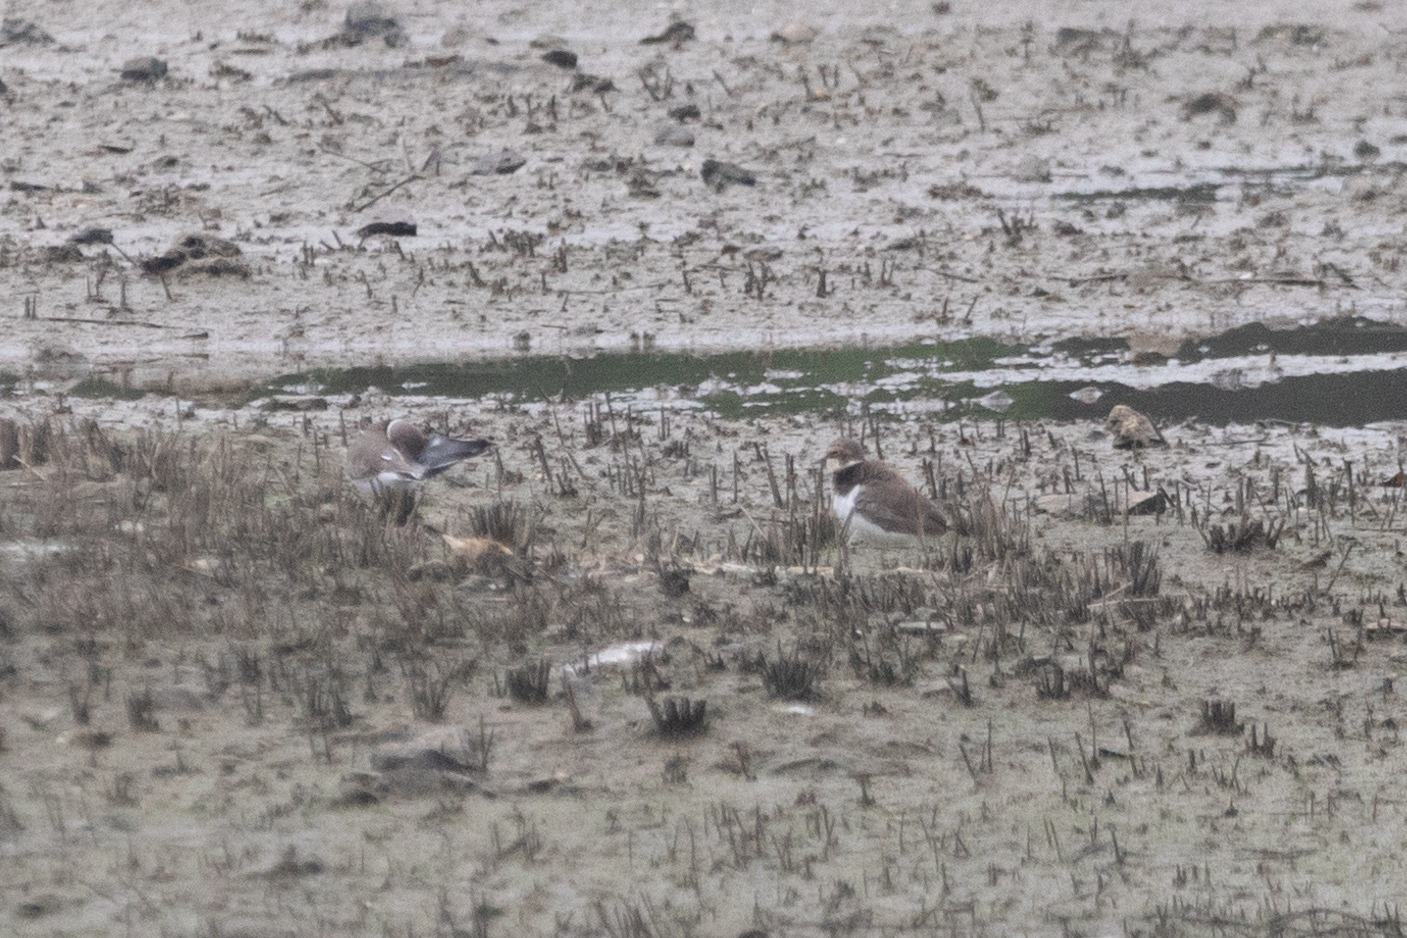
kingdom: Animalia
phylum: Chordata
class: Aves
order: Charadriiformes
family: Charadriidae
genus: Charadrius
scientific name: Charadrius dubius
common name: Little ringed plover
